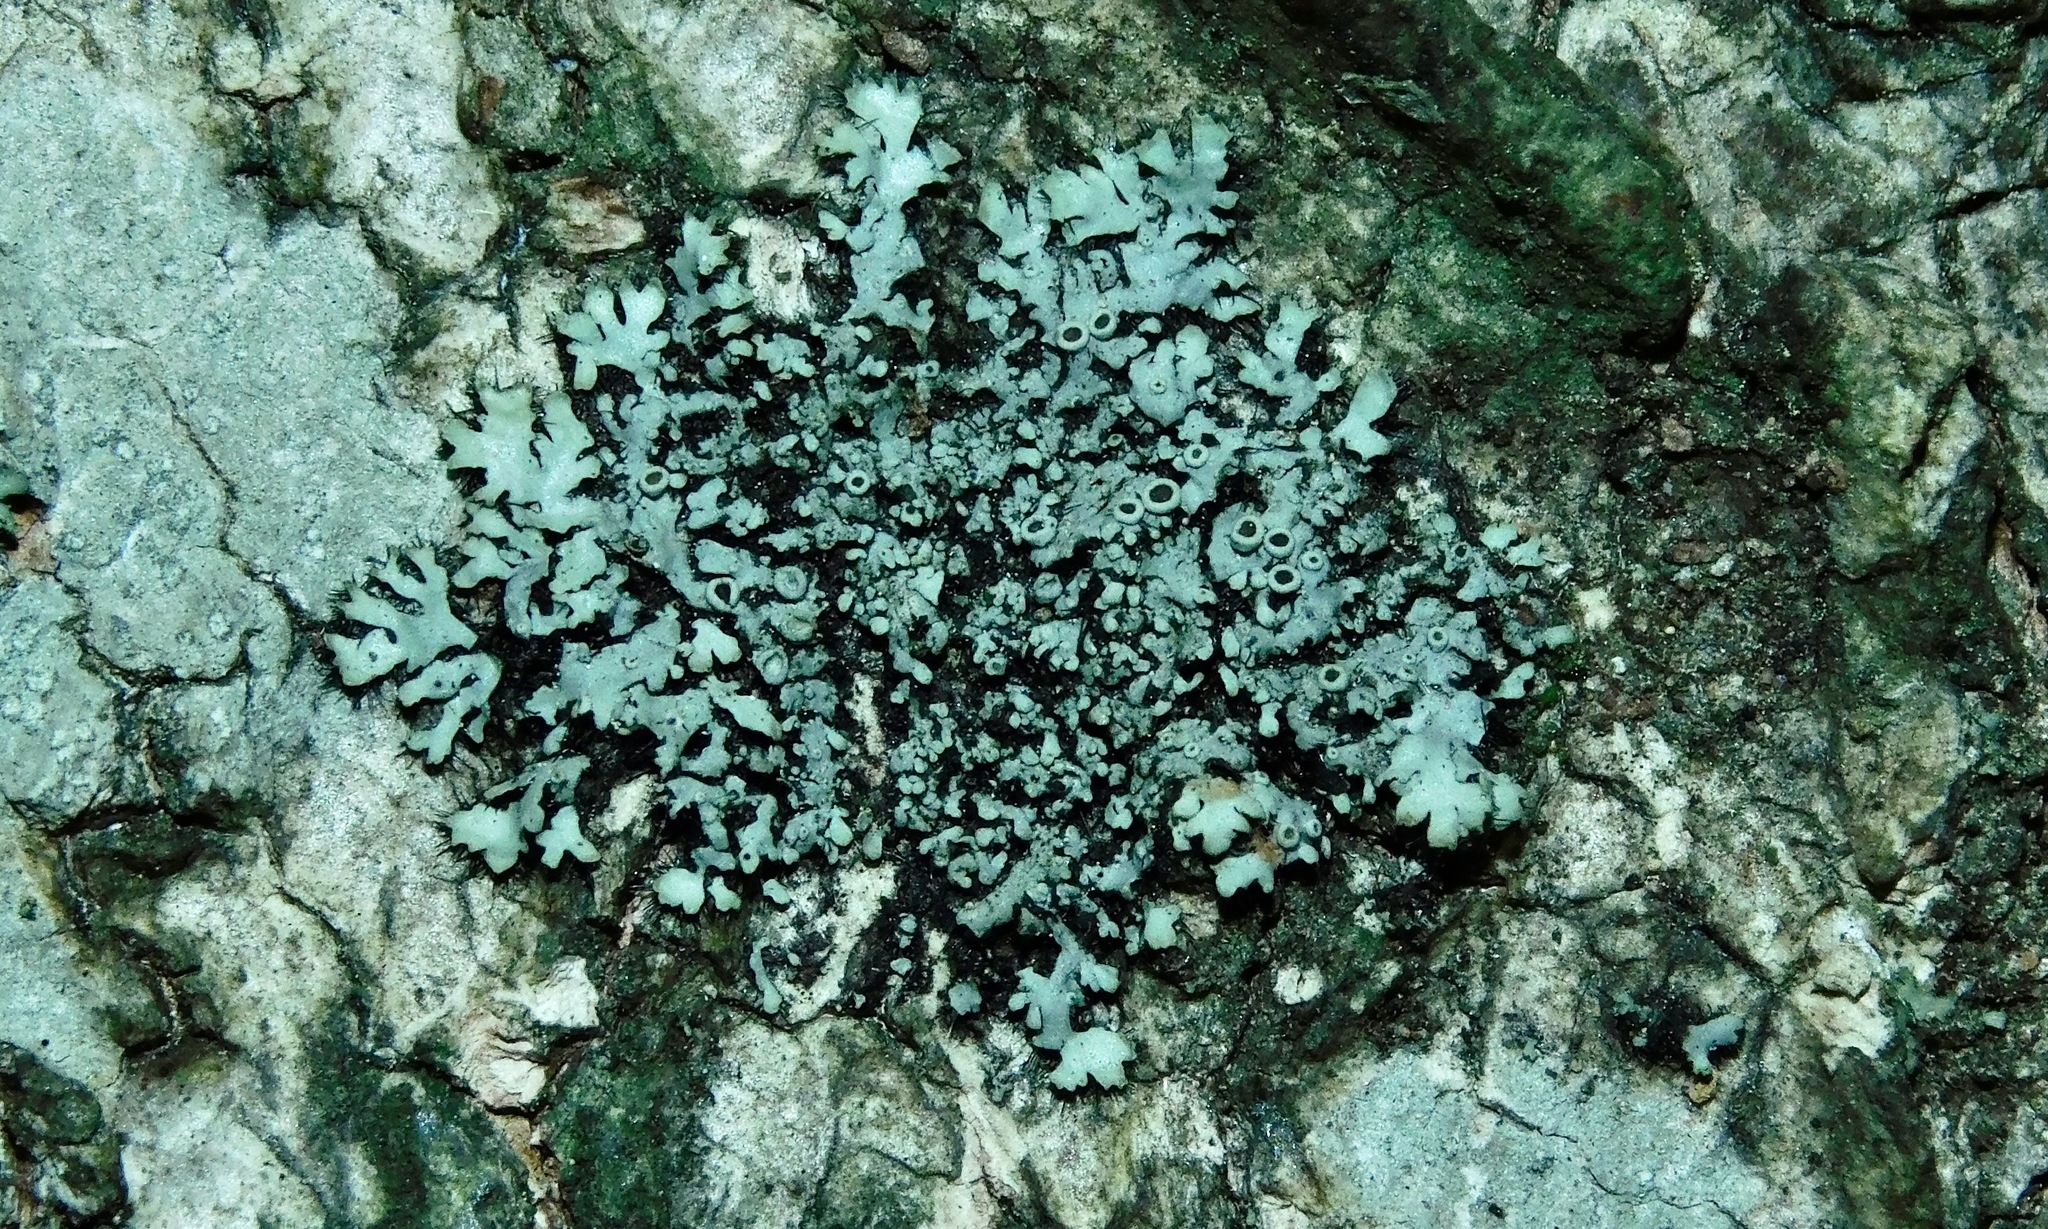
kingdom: Fungi
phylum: Ascomycota
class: Lecanoromycetes
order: Caliciales
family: Physciaceae
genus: Phaeophyscia
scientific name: Phaeophyscia ciliata
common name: Smooth shadow lichen
